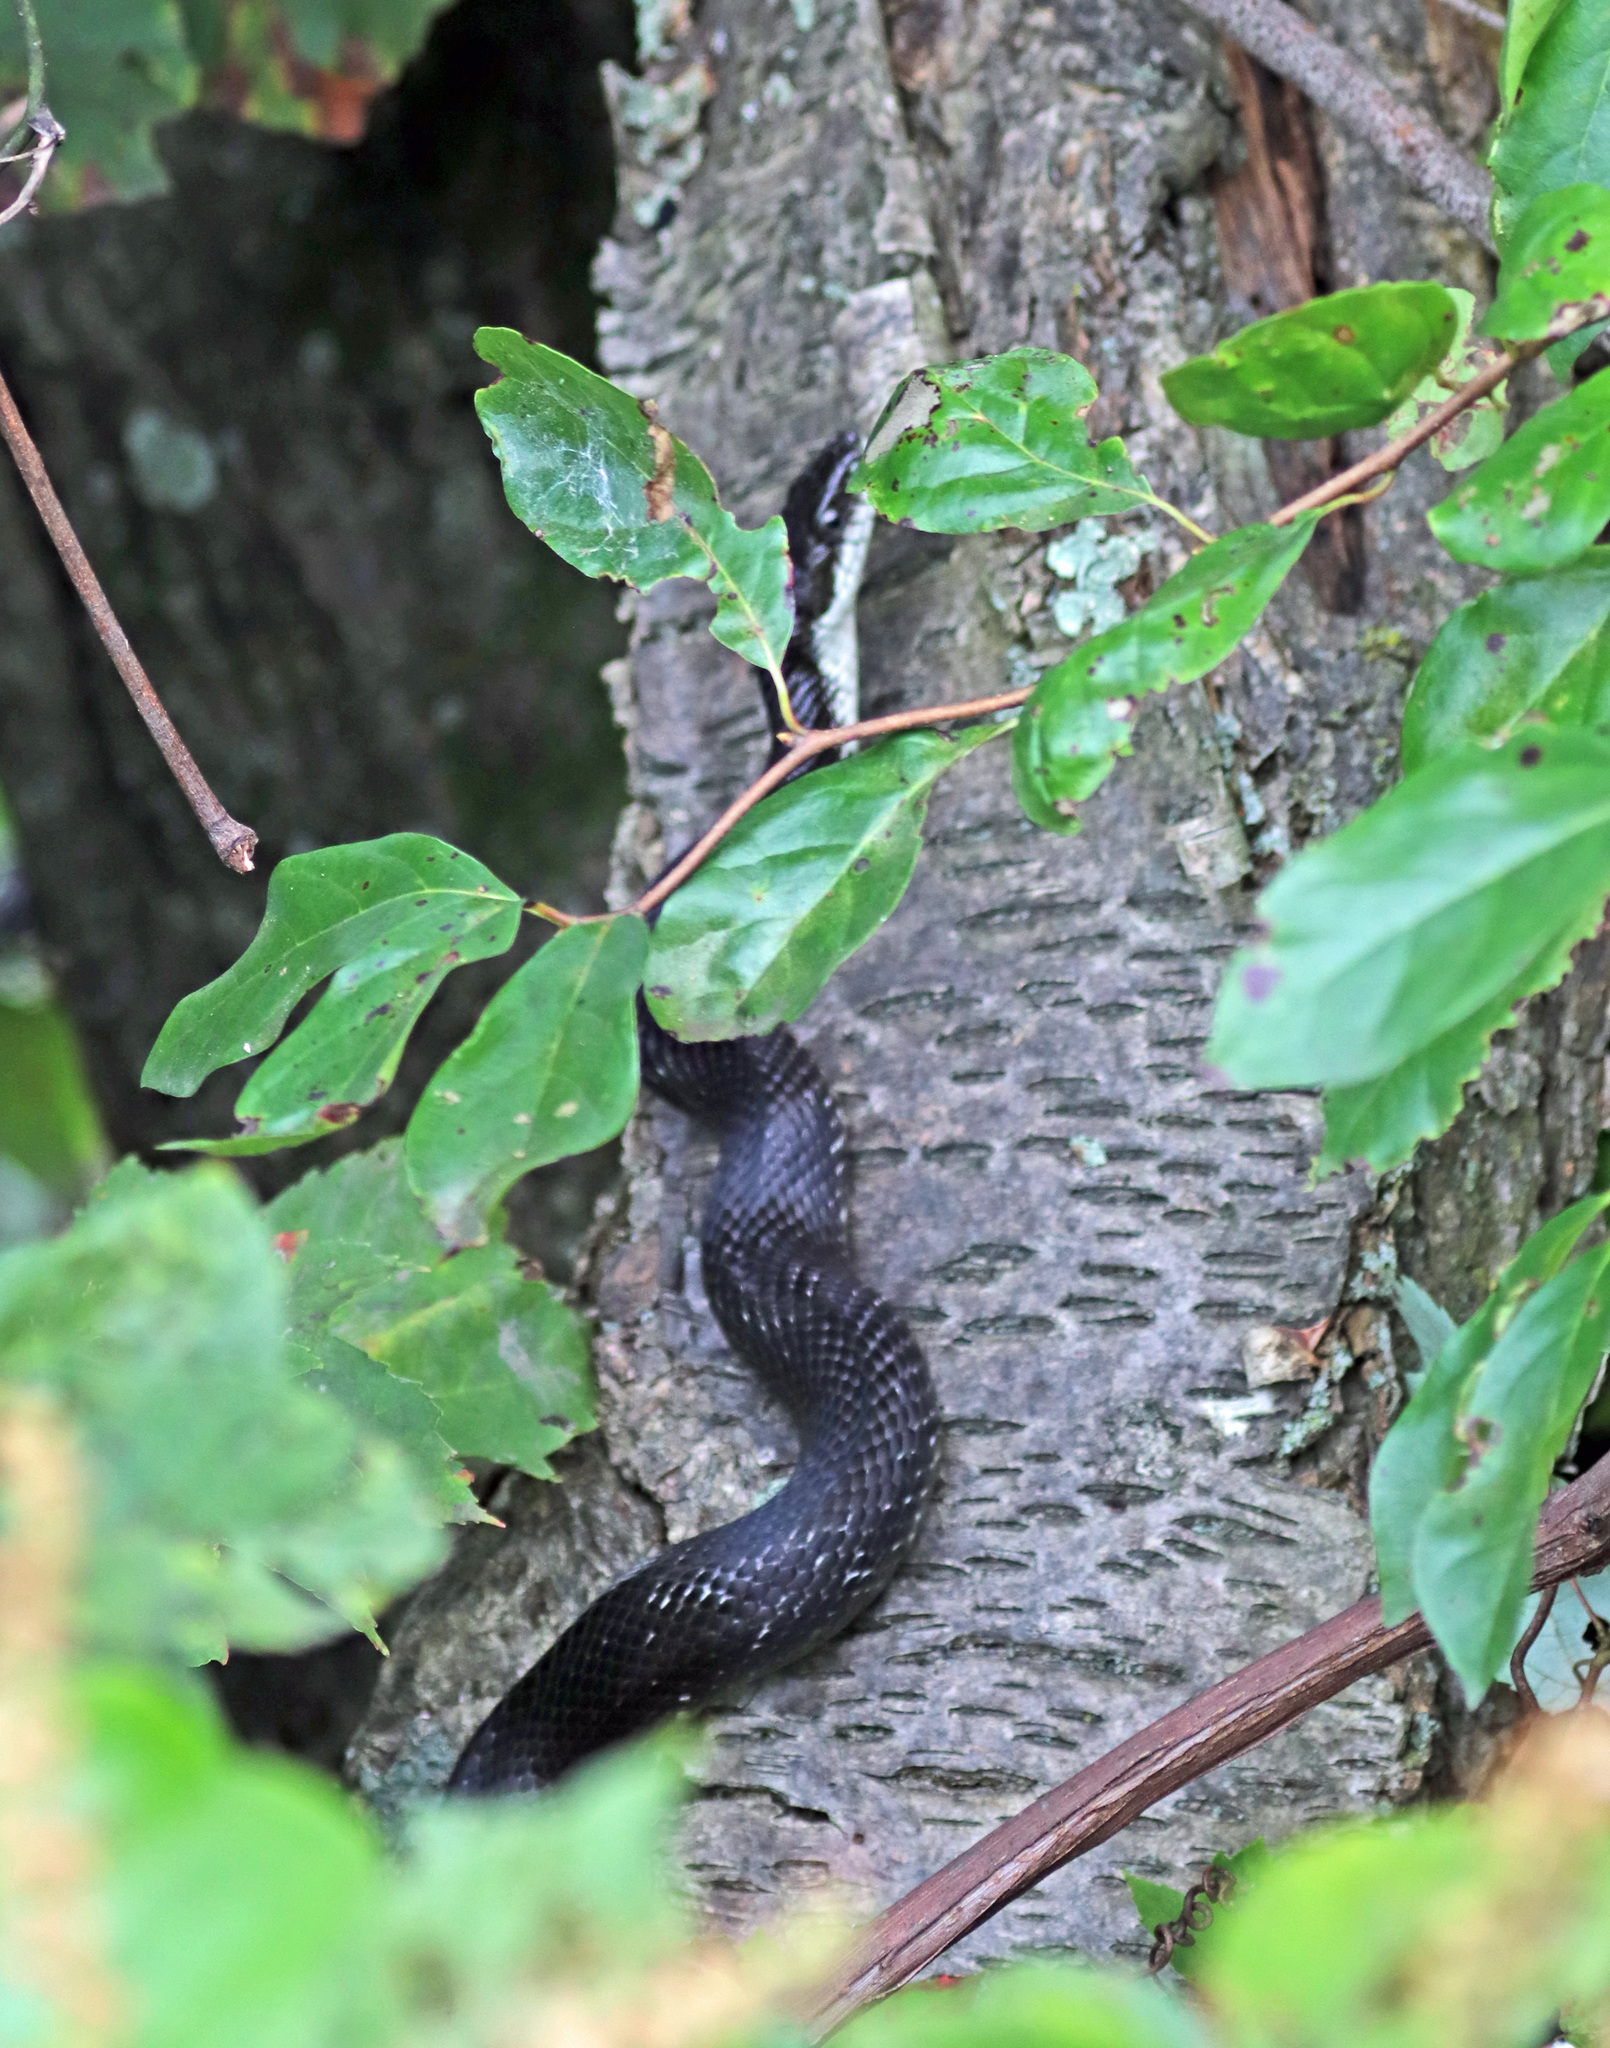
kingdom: Animalia
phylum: Chordata
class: Squamata
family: Colubridae
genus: Pantherophis
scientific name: Pantherophis alleghaniensis
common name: Eastern rat snake
